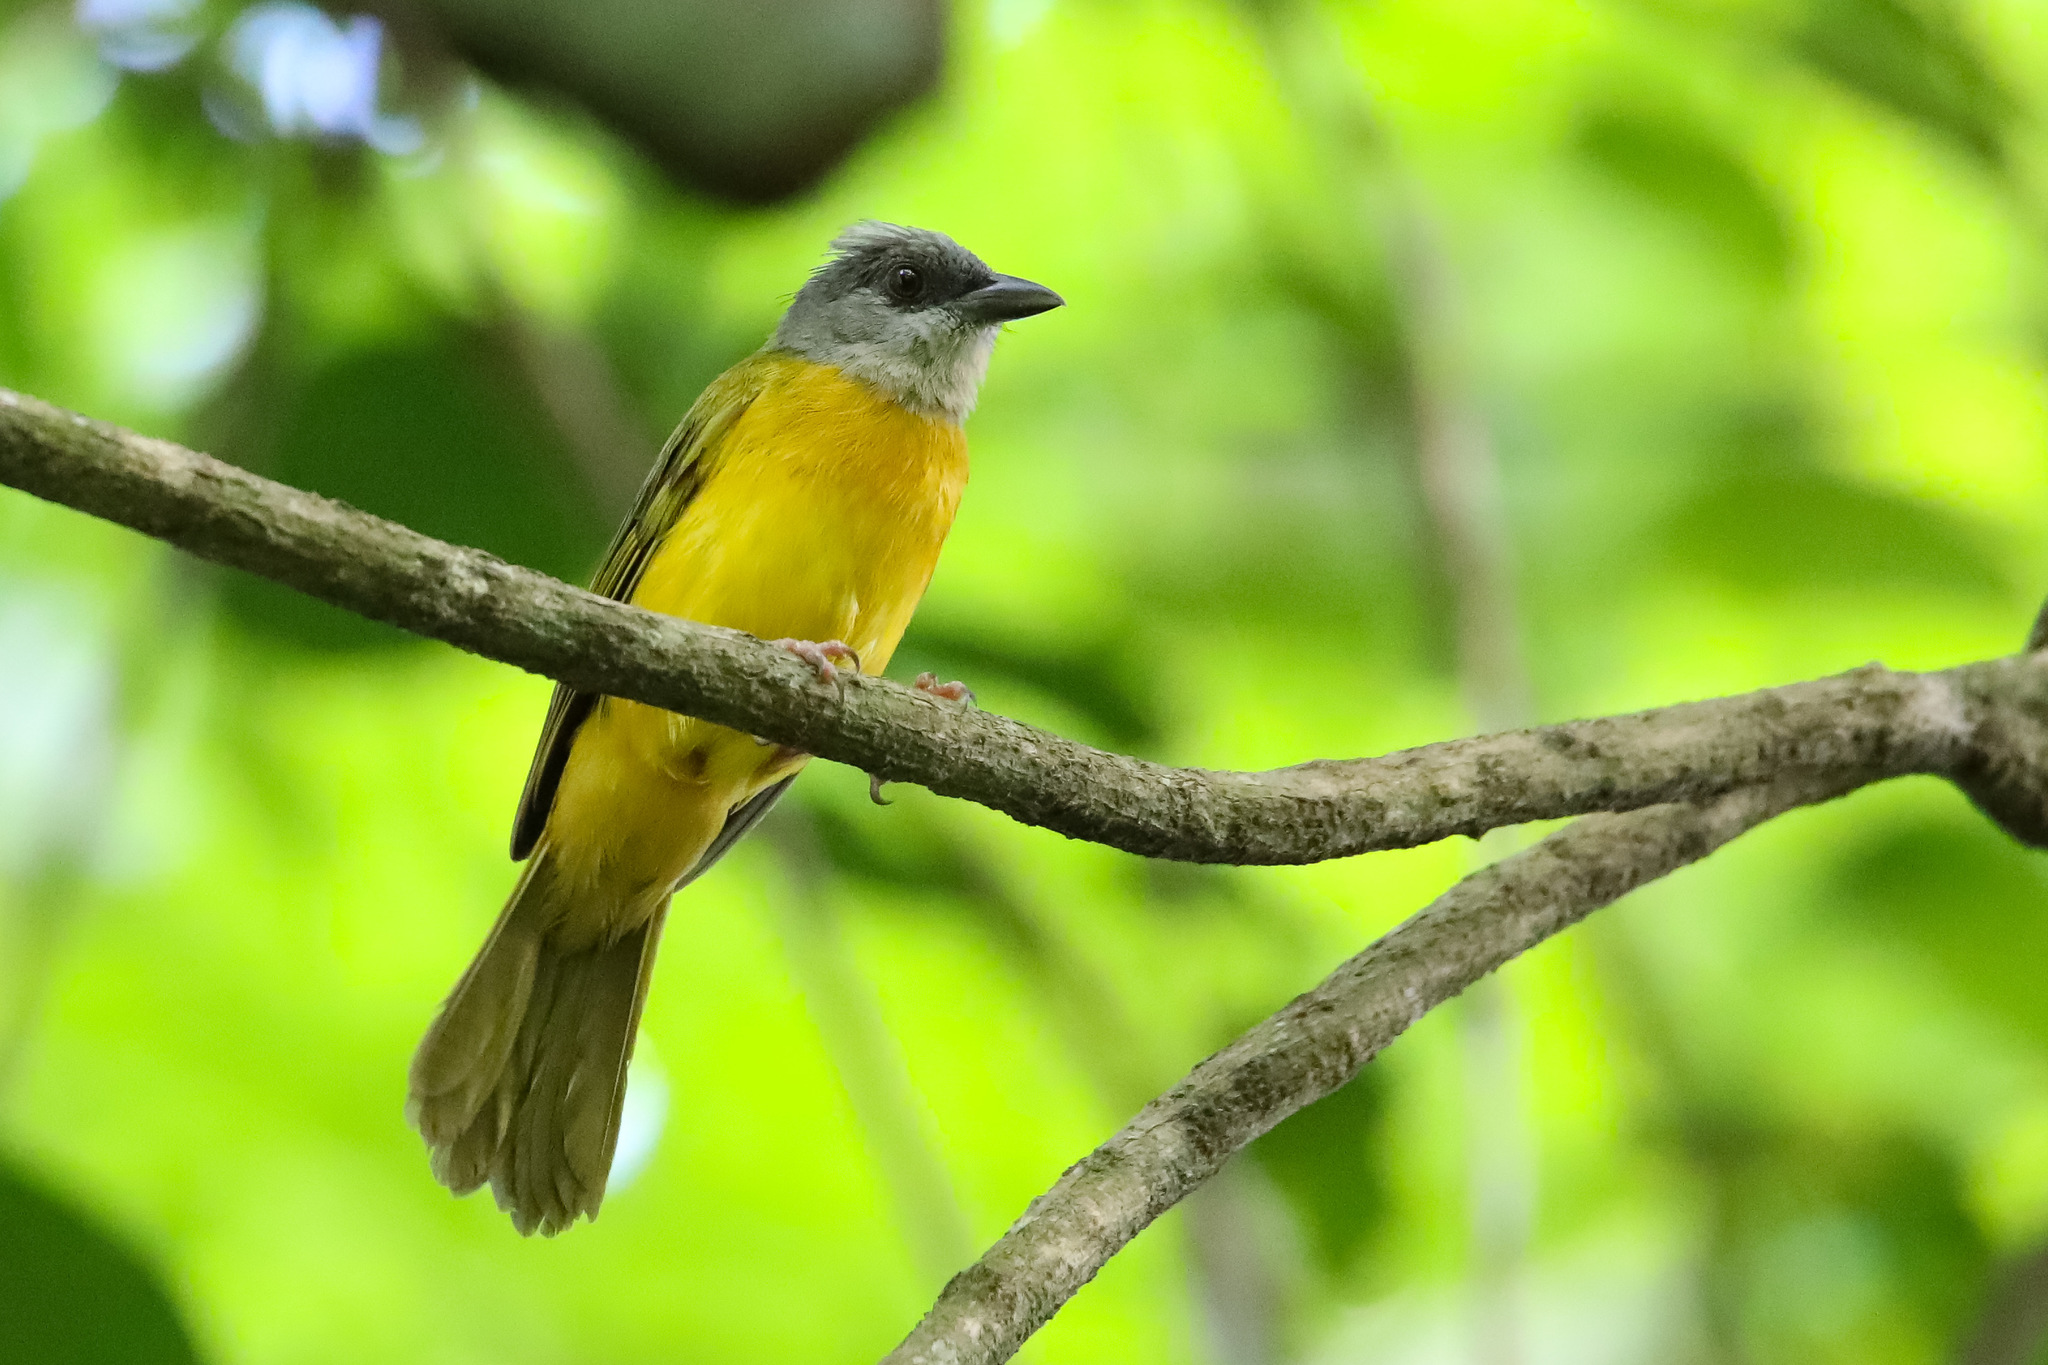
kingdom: Animalia
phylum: Chordata
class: Aves
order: Passeriformes
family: Thraupidae
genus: Eucometis
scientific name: Eucometis penicillata
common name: Grey-headed tanager
